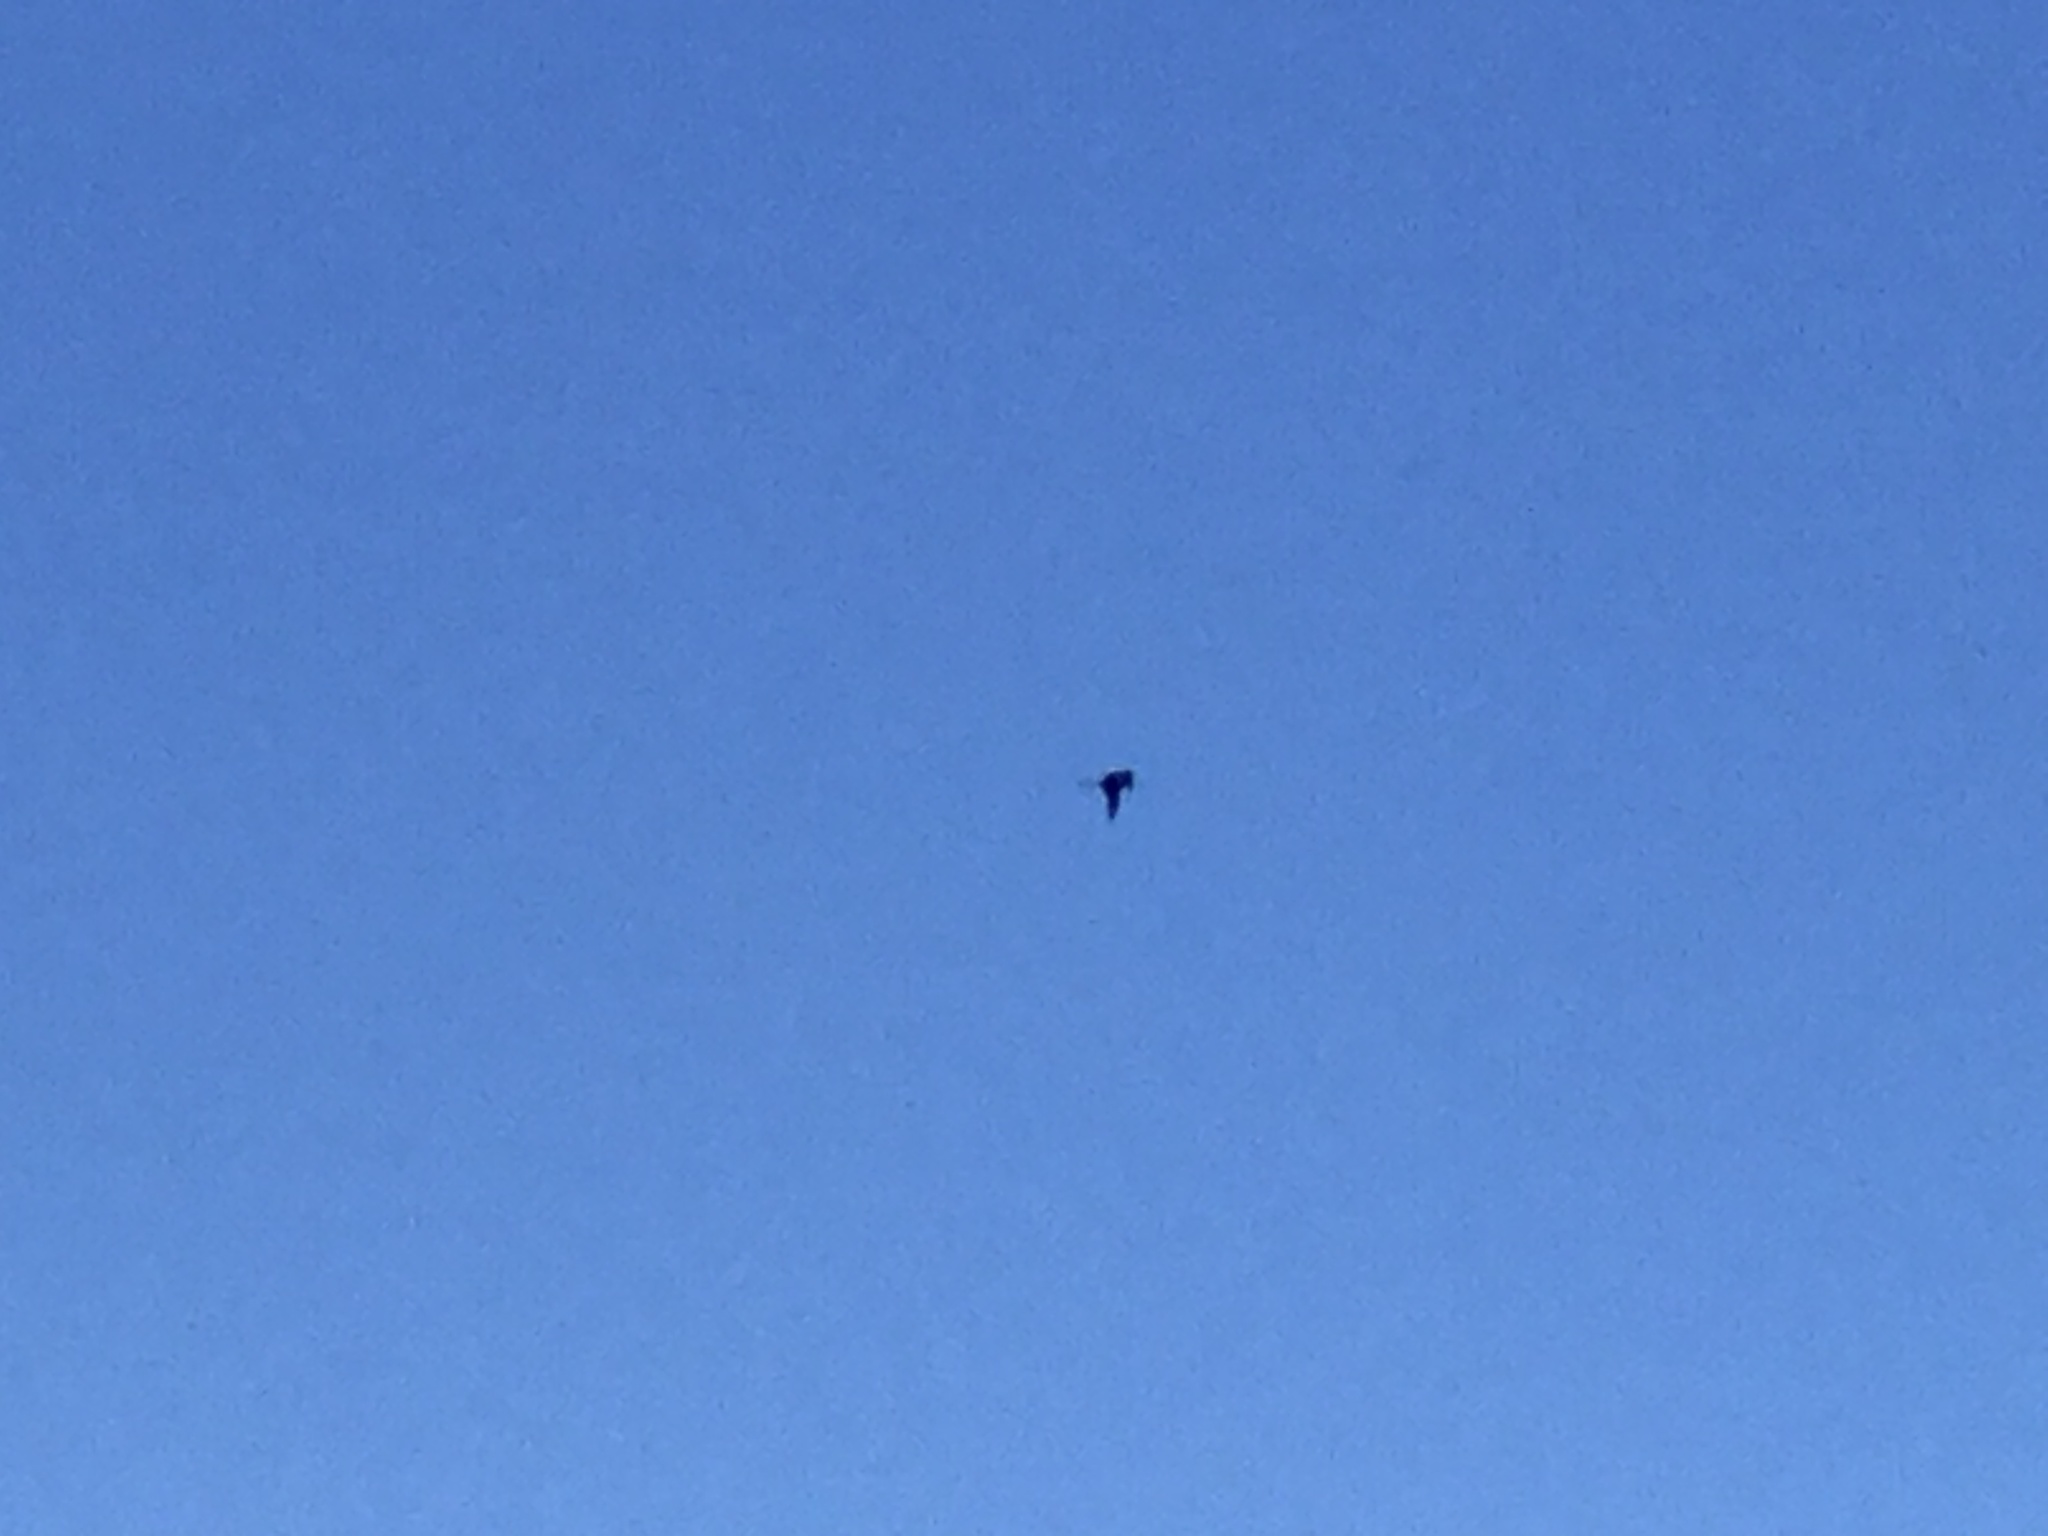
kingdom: Animalia
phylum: Chordata
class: Aves
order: Suliformes
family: Fregatidae
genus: Fregata
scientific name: Fregata minor
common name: Great frigatebird
